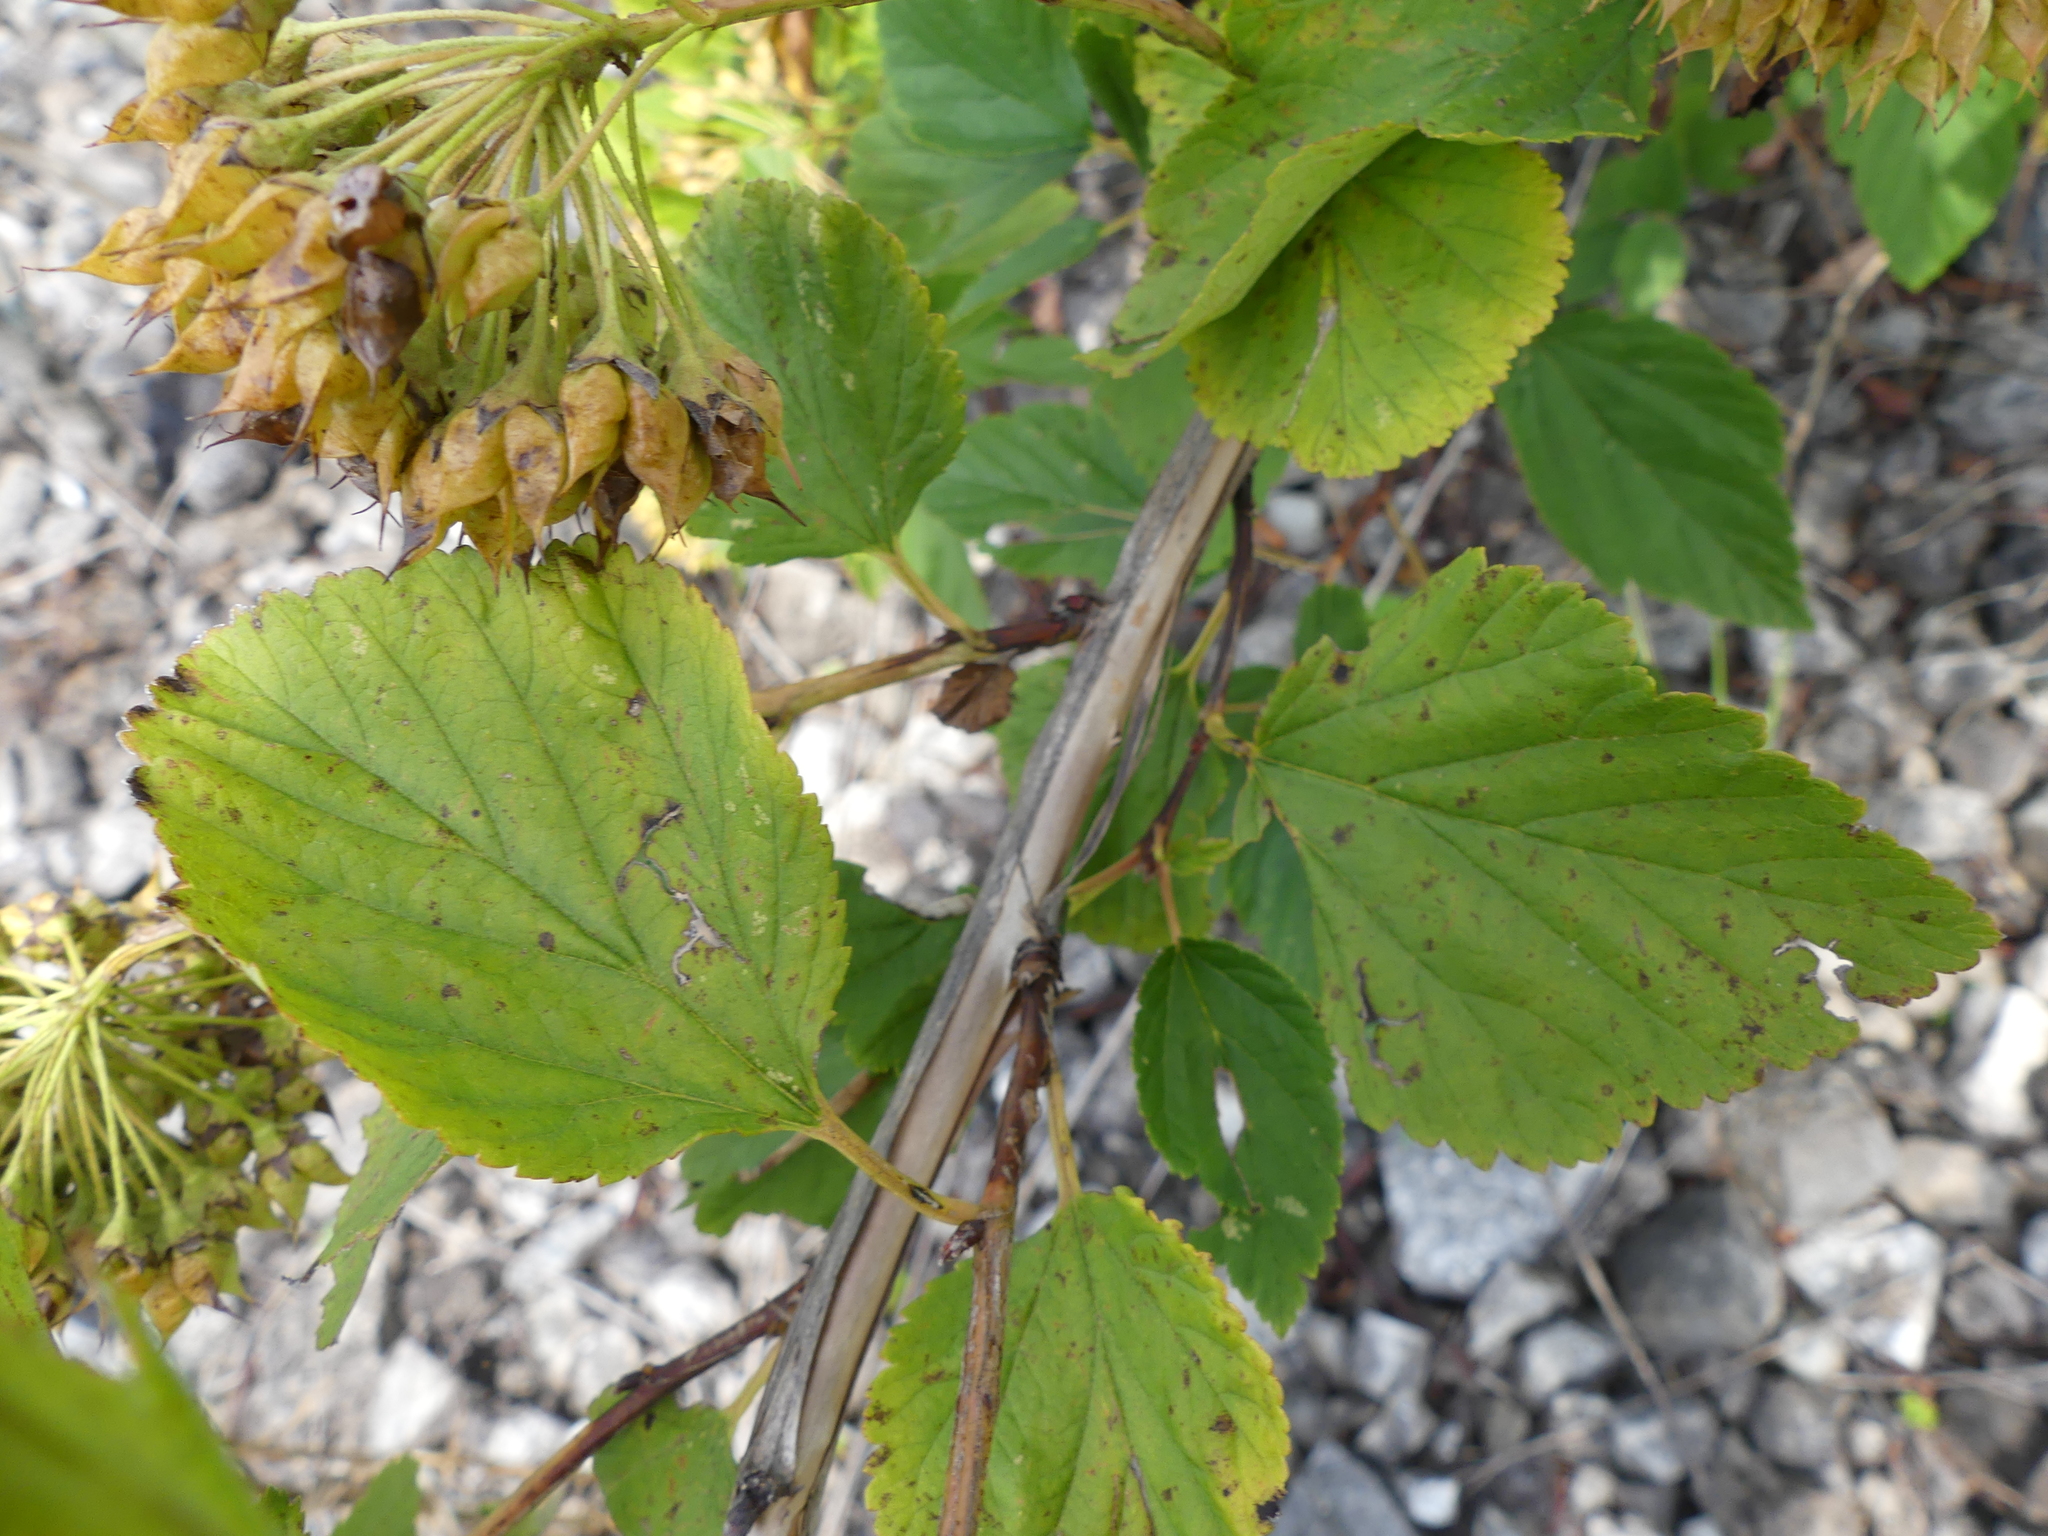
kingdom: Plantae
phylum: Tracheophyta
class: Magnoliopsida
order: Rosales
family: Rosaceae
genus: Physocarpus
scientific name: Physocarpus opulifolius
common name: Ninebark
